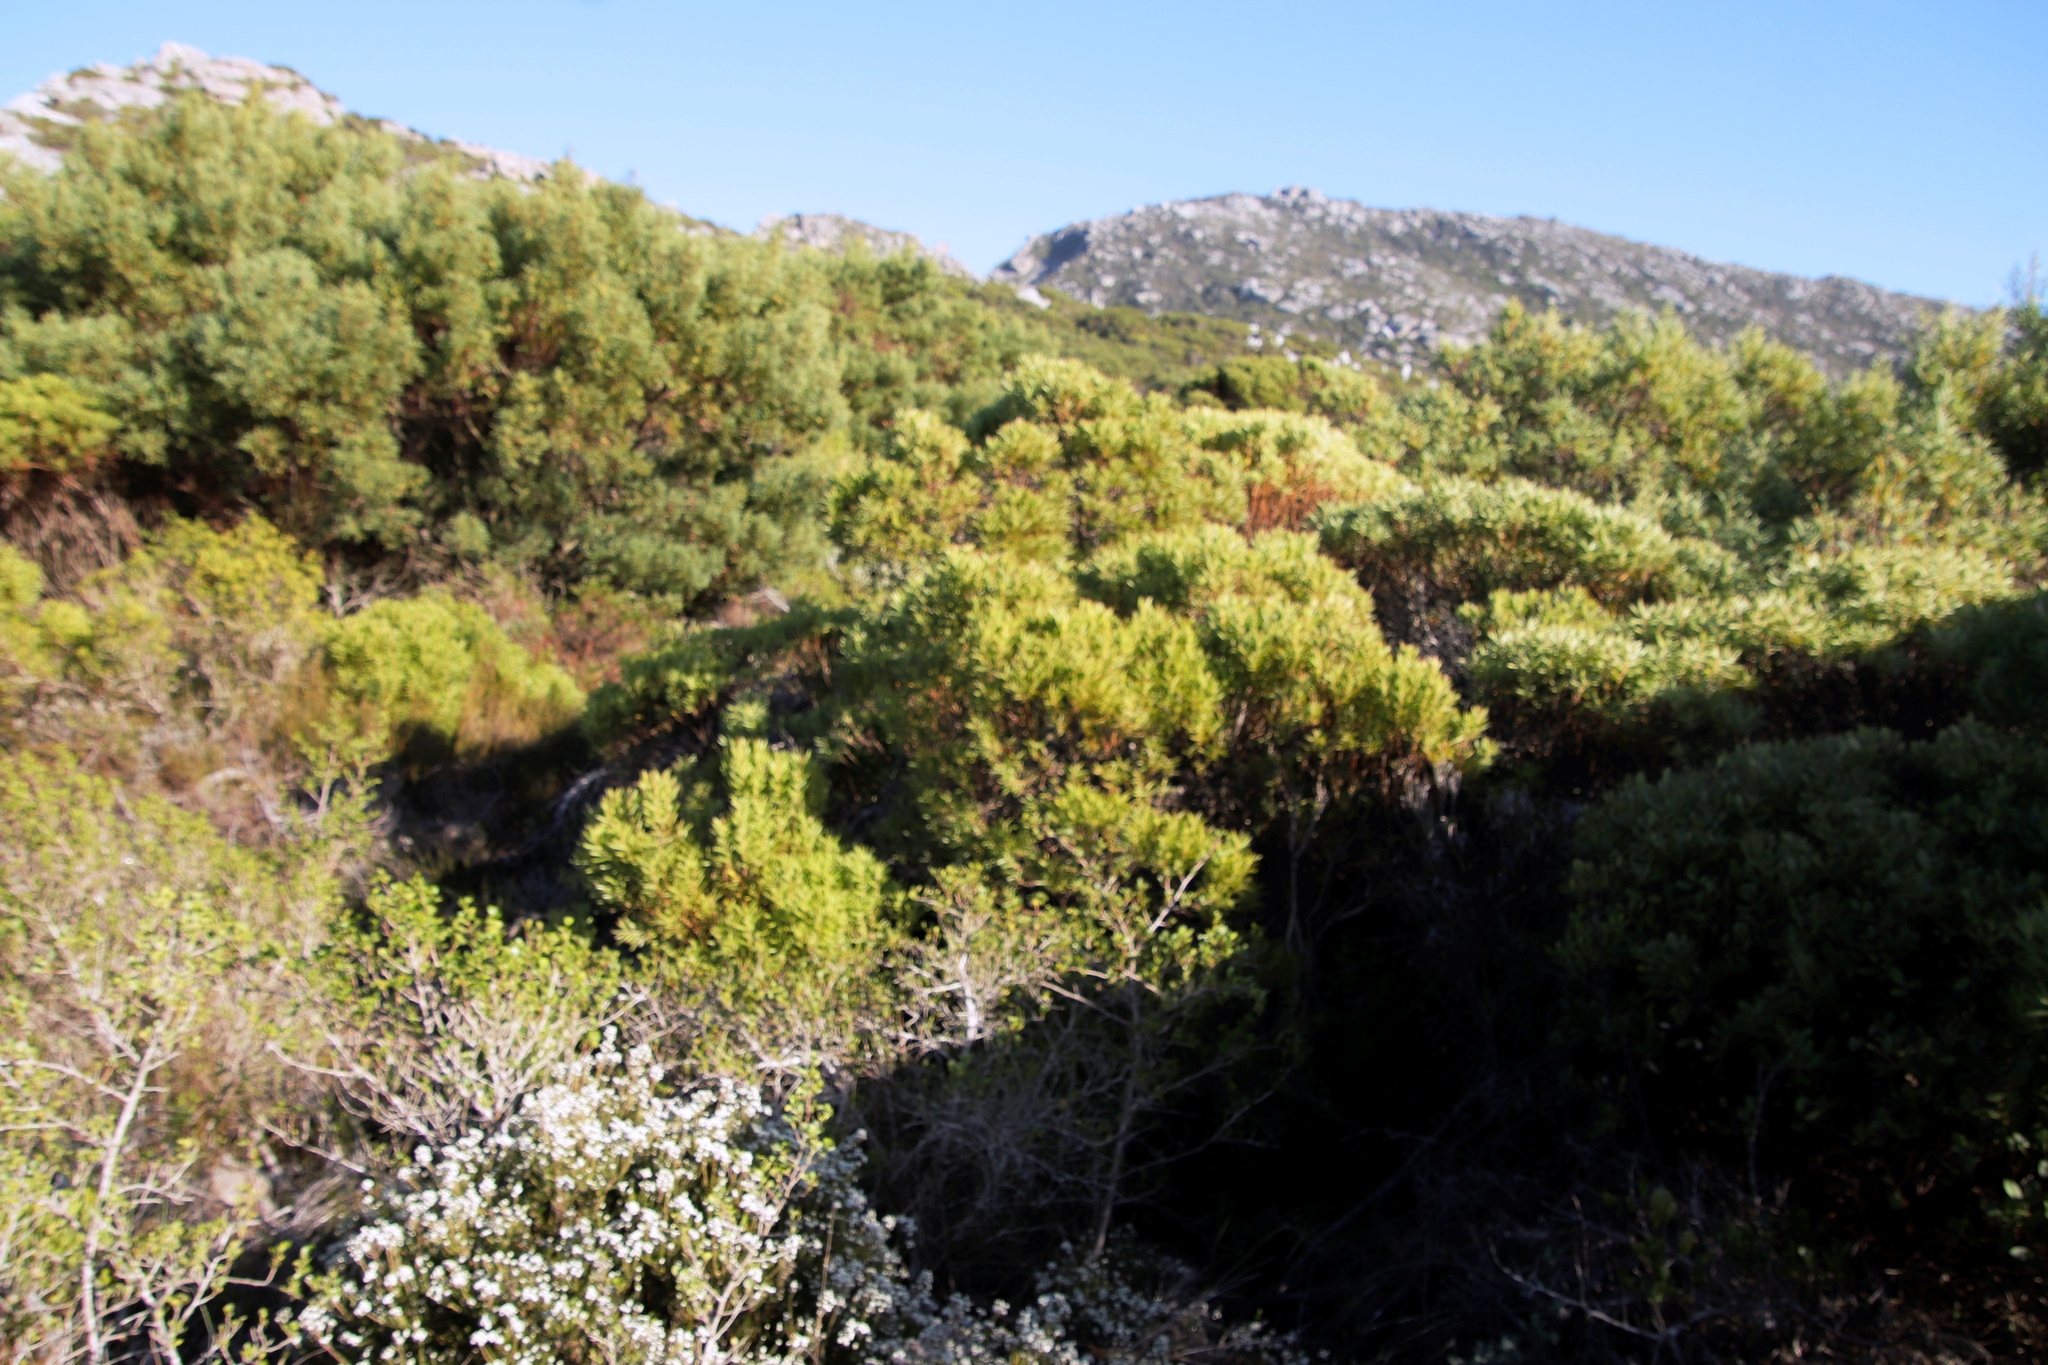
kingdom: Plantae
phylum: Tracheophyta
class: Magnoliopsida
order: Proteales
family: Proteaceae
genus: Leucadendron
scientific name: Leucadendron coniferum
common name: Dune conebush
